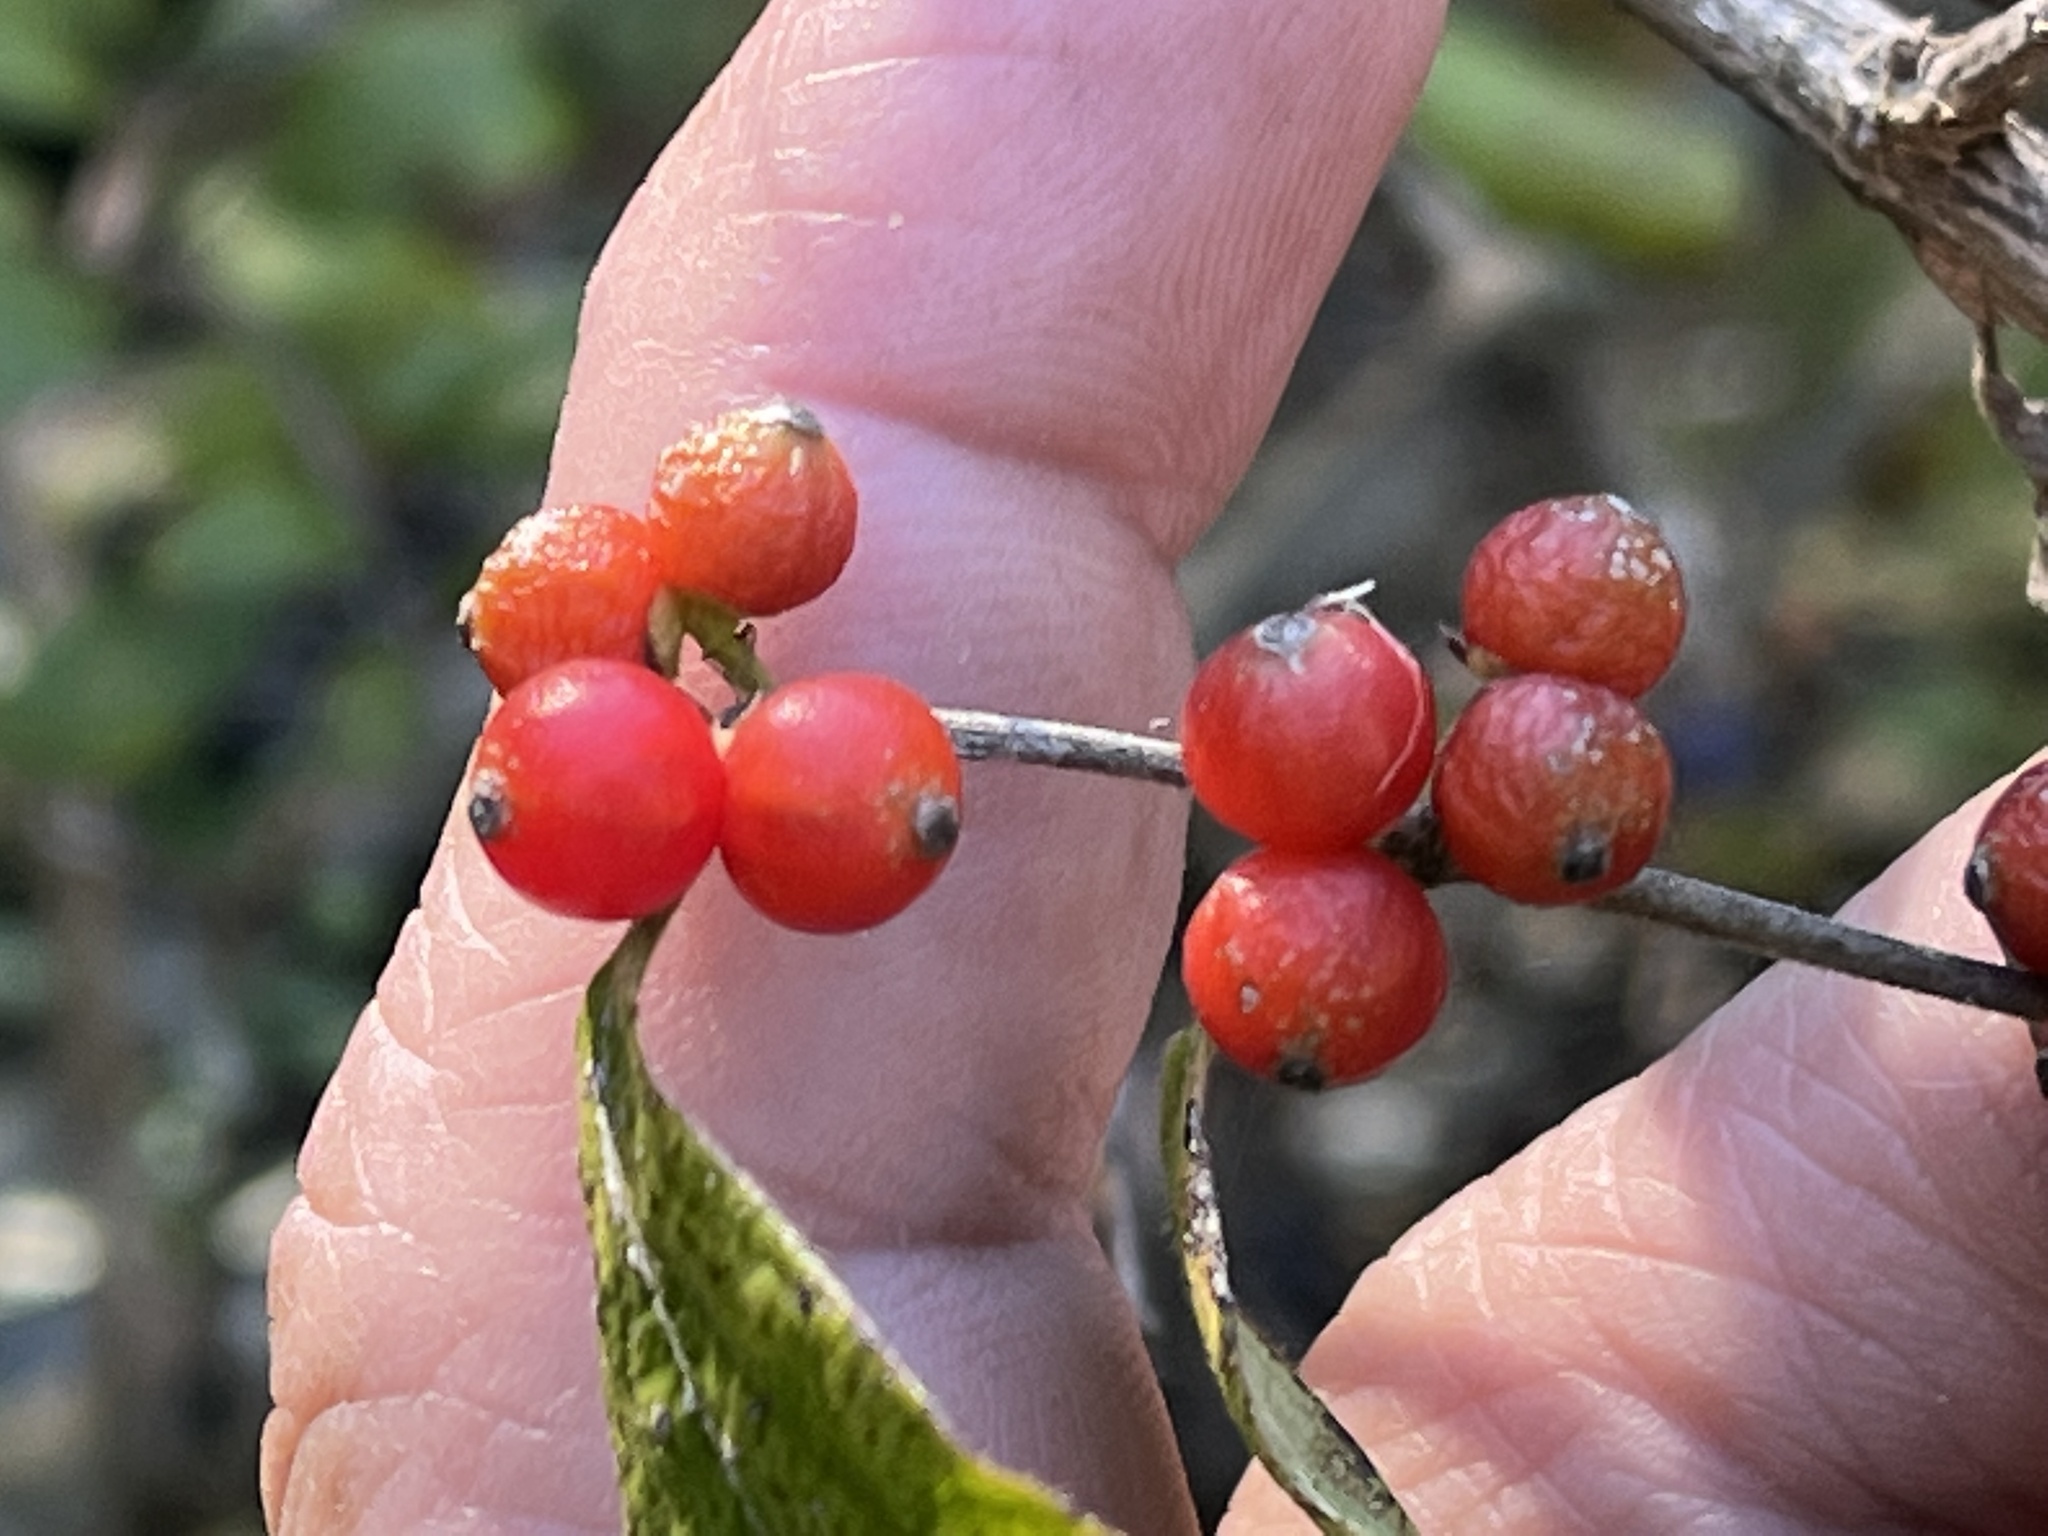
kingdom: Plantae
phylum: Tracheophyta
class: Magnoliopsida
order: Dipsacales
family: Caprifoliaceae
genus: Lonicera
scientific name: Lonicera maackii
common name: Amur honeysuckle
